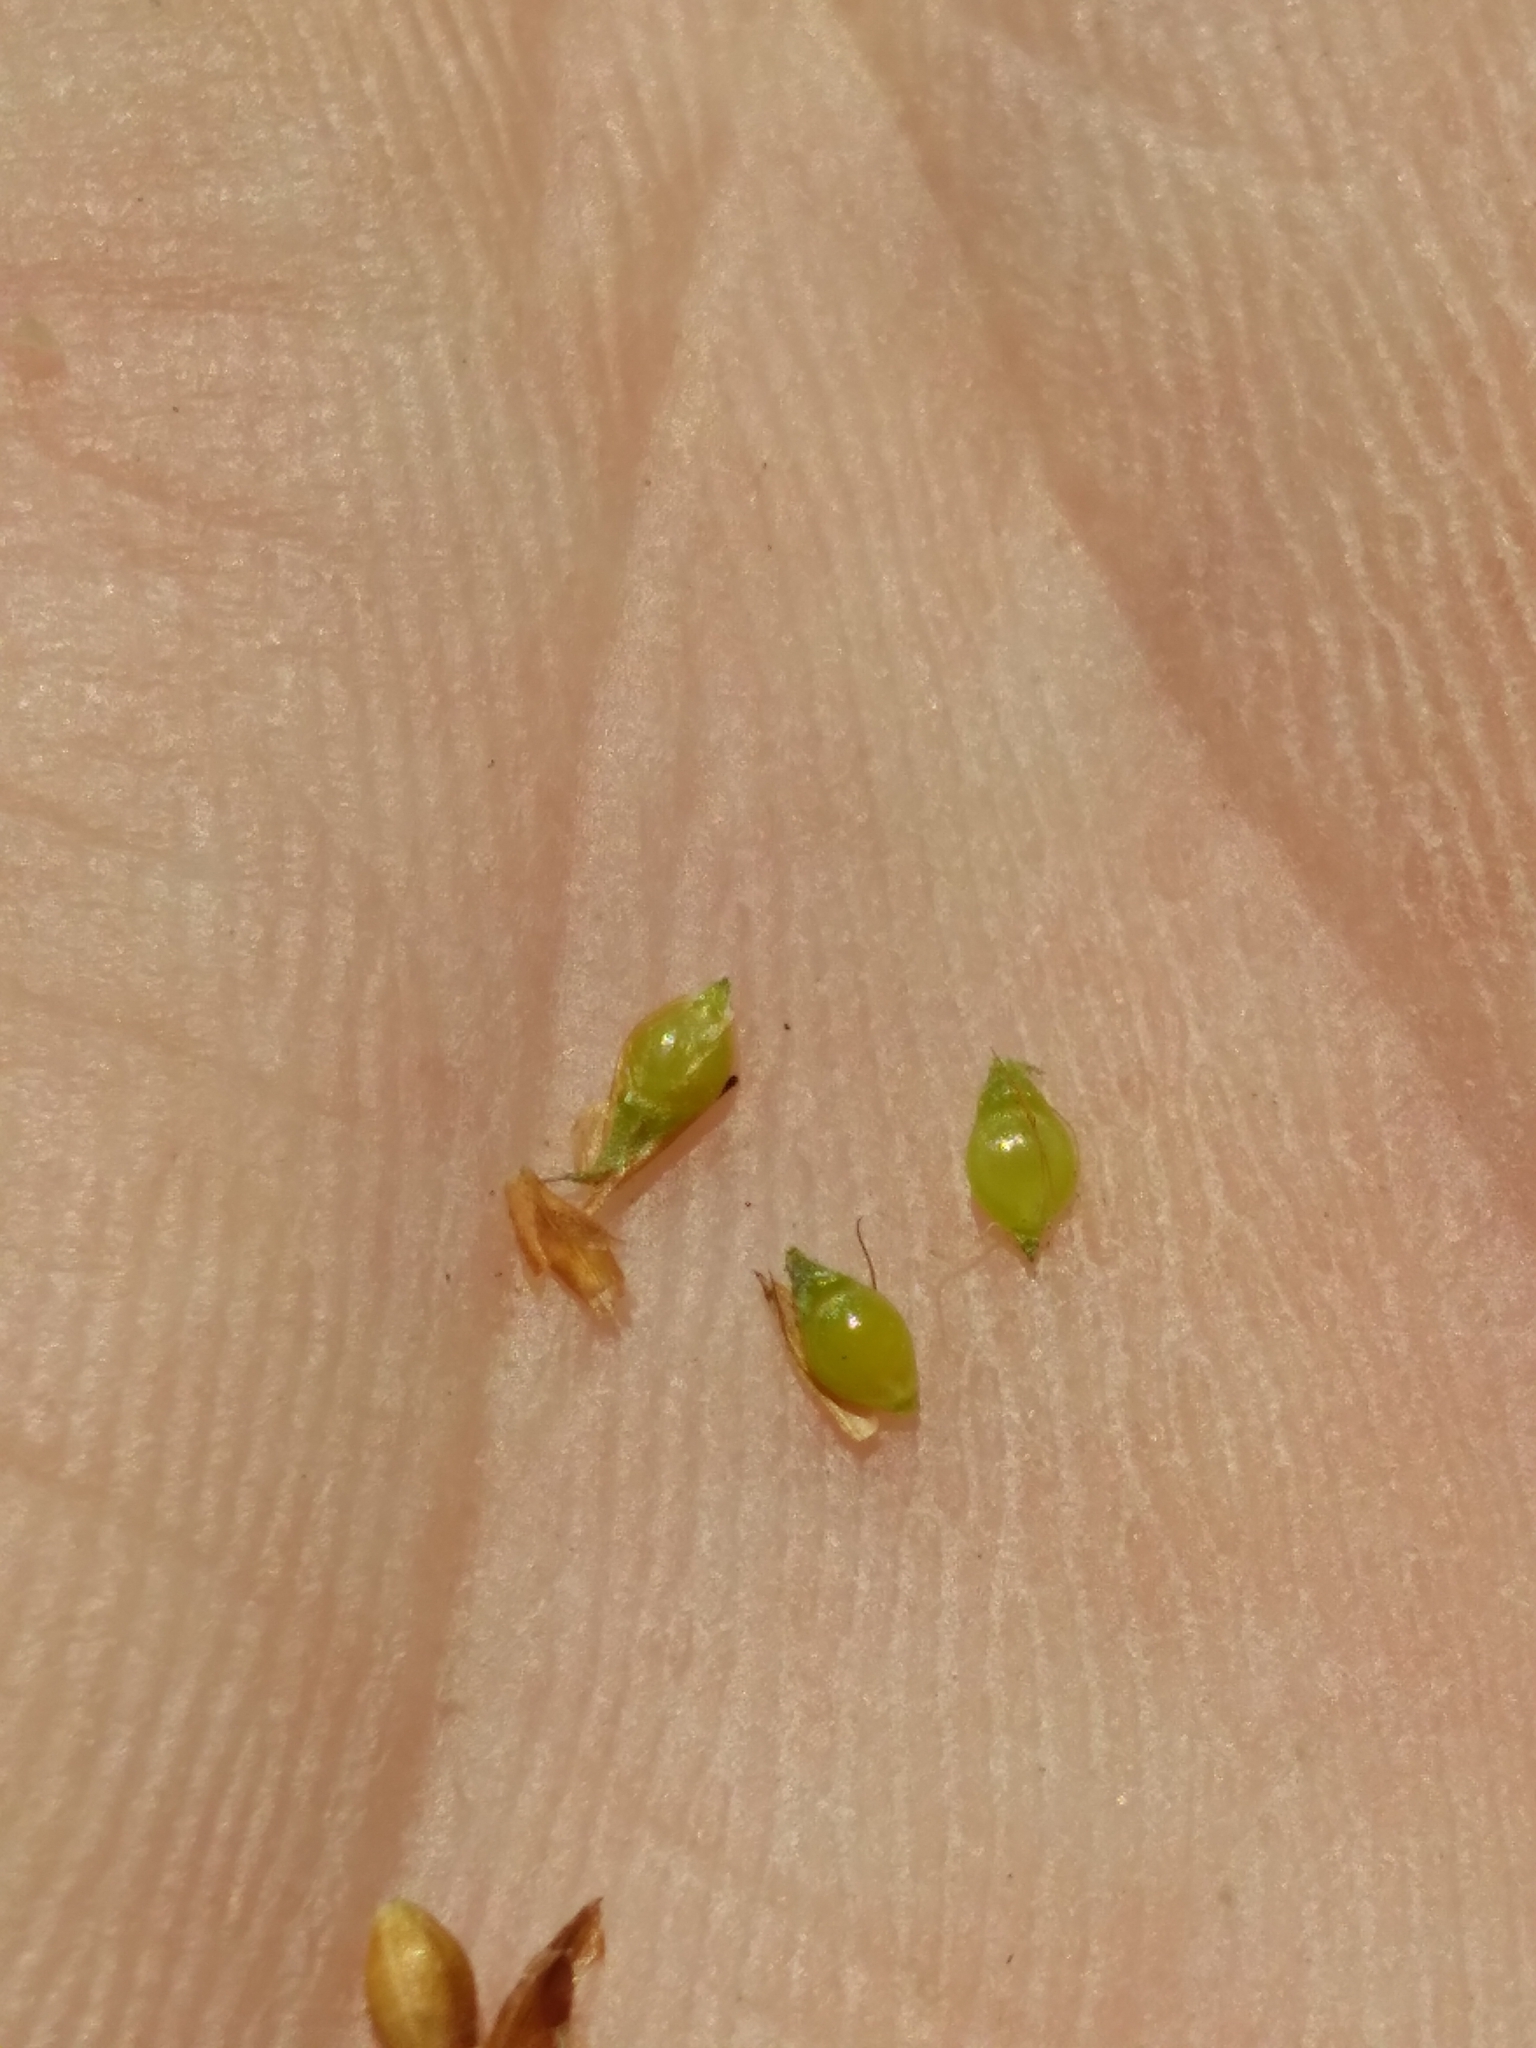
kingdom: Plantae
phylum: Tracheophyta
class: Liliopsida
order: Poales
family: Cyperaceae
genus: Rhynchospora
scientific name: Rhynchospora filifolia
